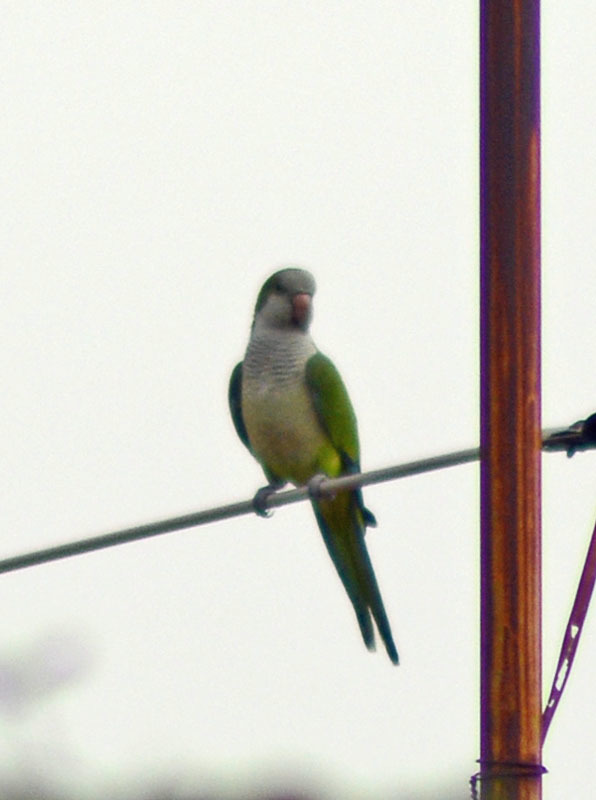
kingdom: Animalia
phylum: Chordata
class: Aves
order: Psittaciformes
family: Psittacidae
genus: Myiopsitta
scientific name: Myiopsitta monachus
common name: Monk parakeet
